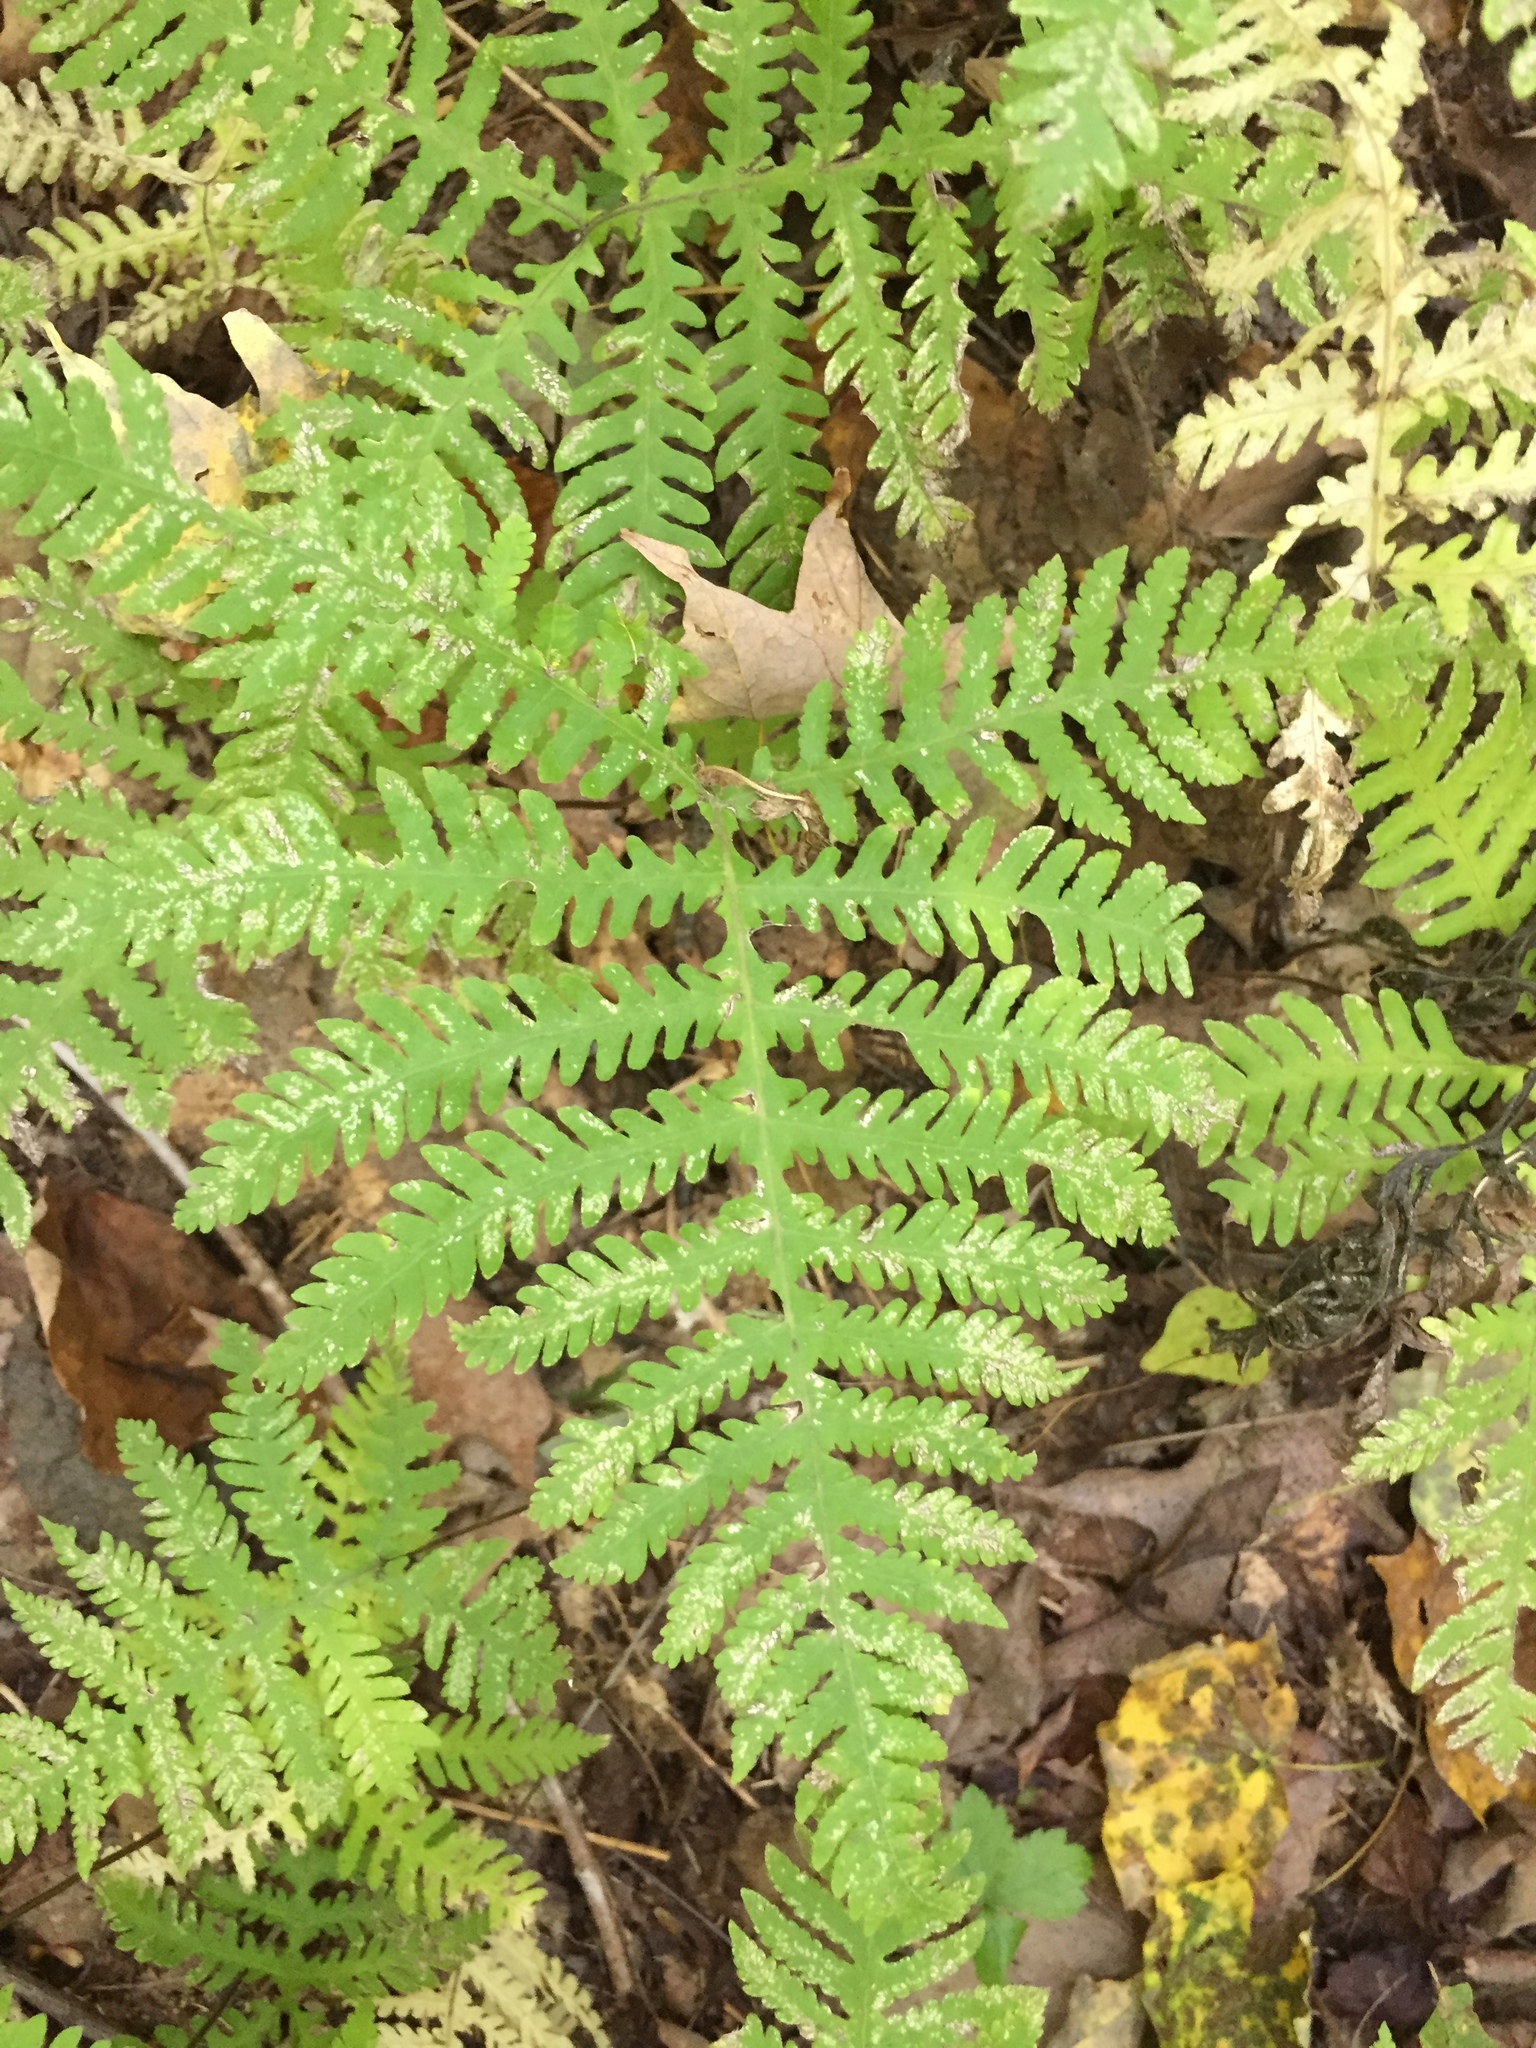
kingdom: Plantae
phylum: Tracheophyta
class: Polypodiopsida
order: Polypodiales
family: Thelypteridaceae
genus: Phegopteris
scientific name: Phegopteris hexagonoptera
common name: Broad beech fern
